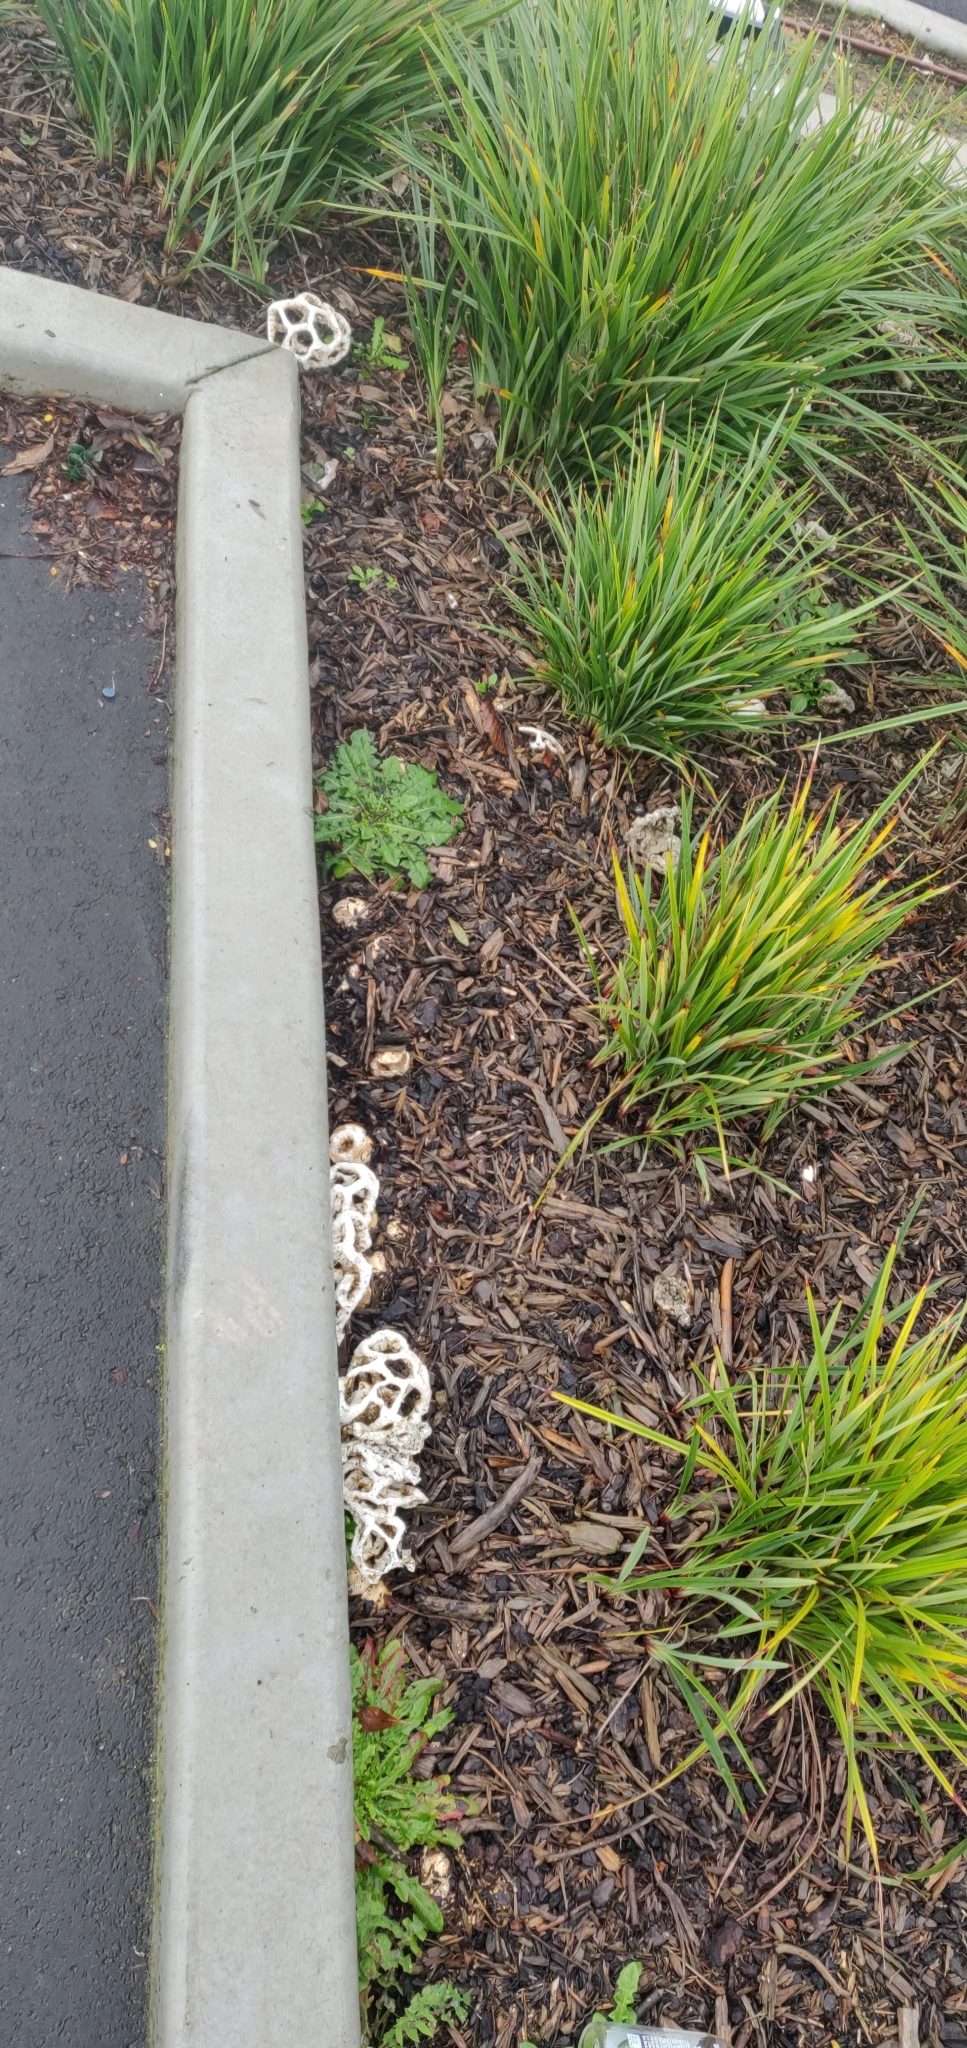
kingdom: Fungi
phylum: Basidiomycota
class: Agaricomycetes
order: Phallales
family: Phallaceae
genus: Ileodictyon
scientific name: Ileodictyon cibarium
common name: Basket fungus
